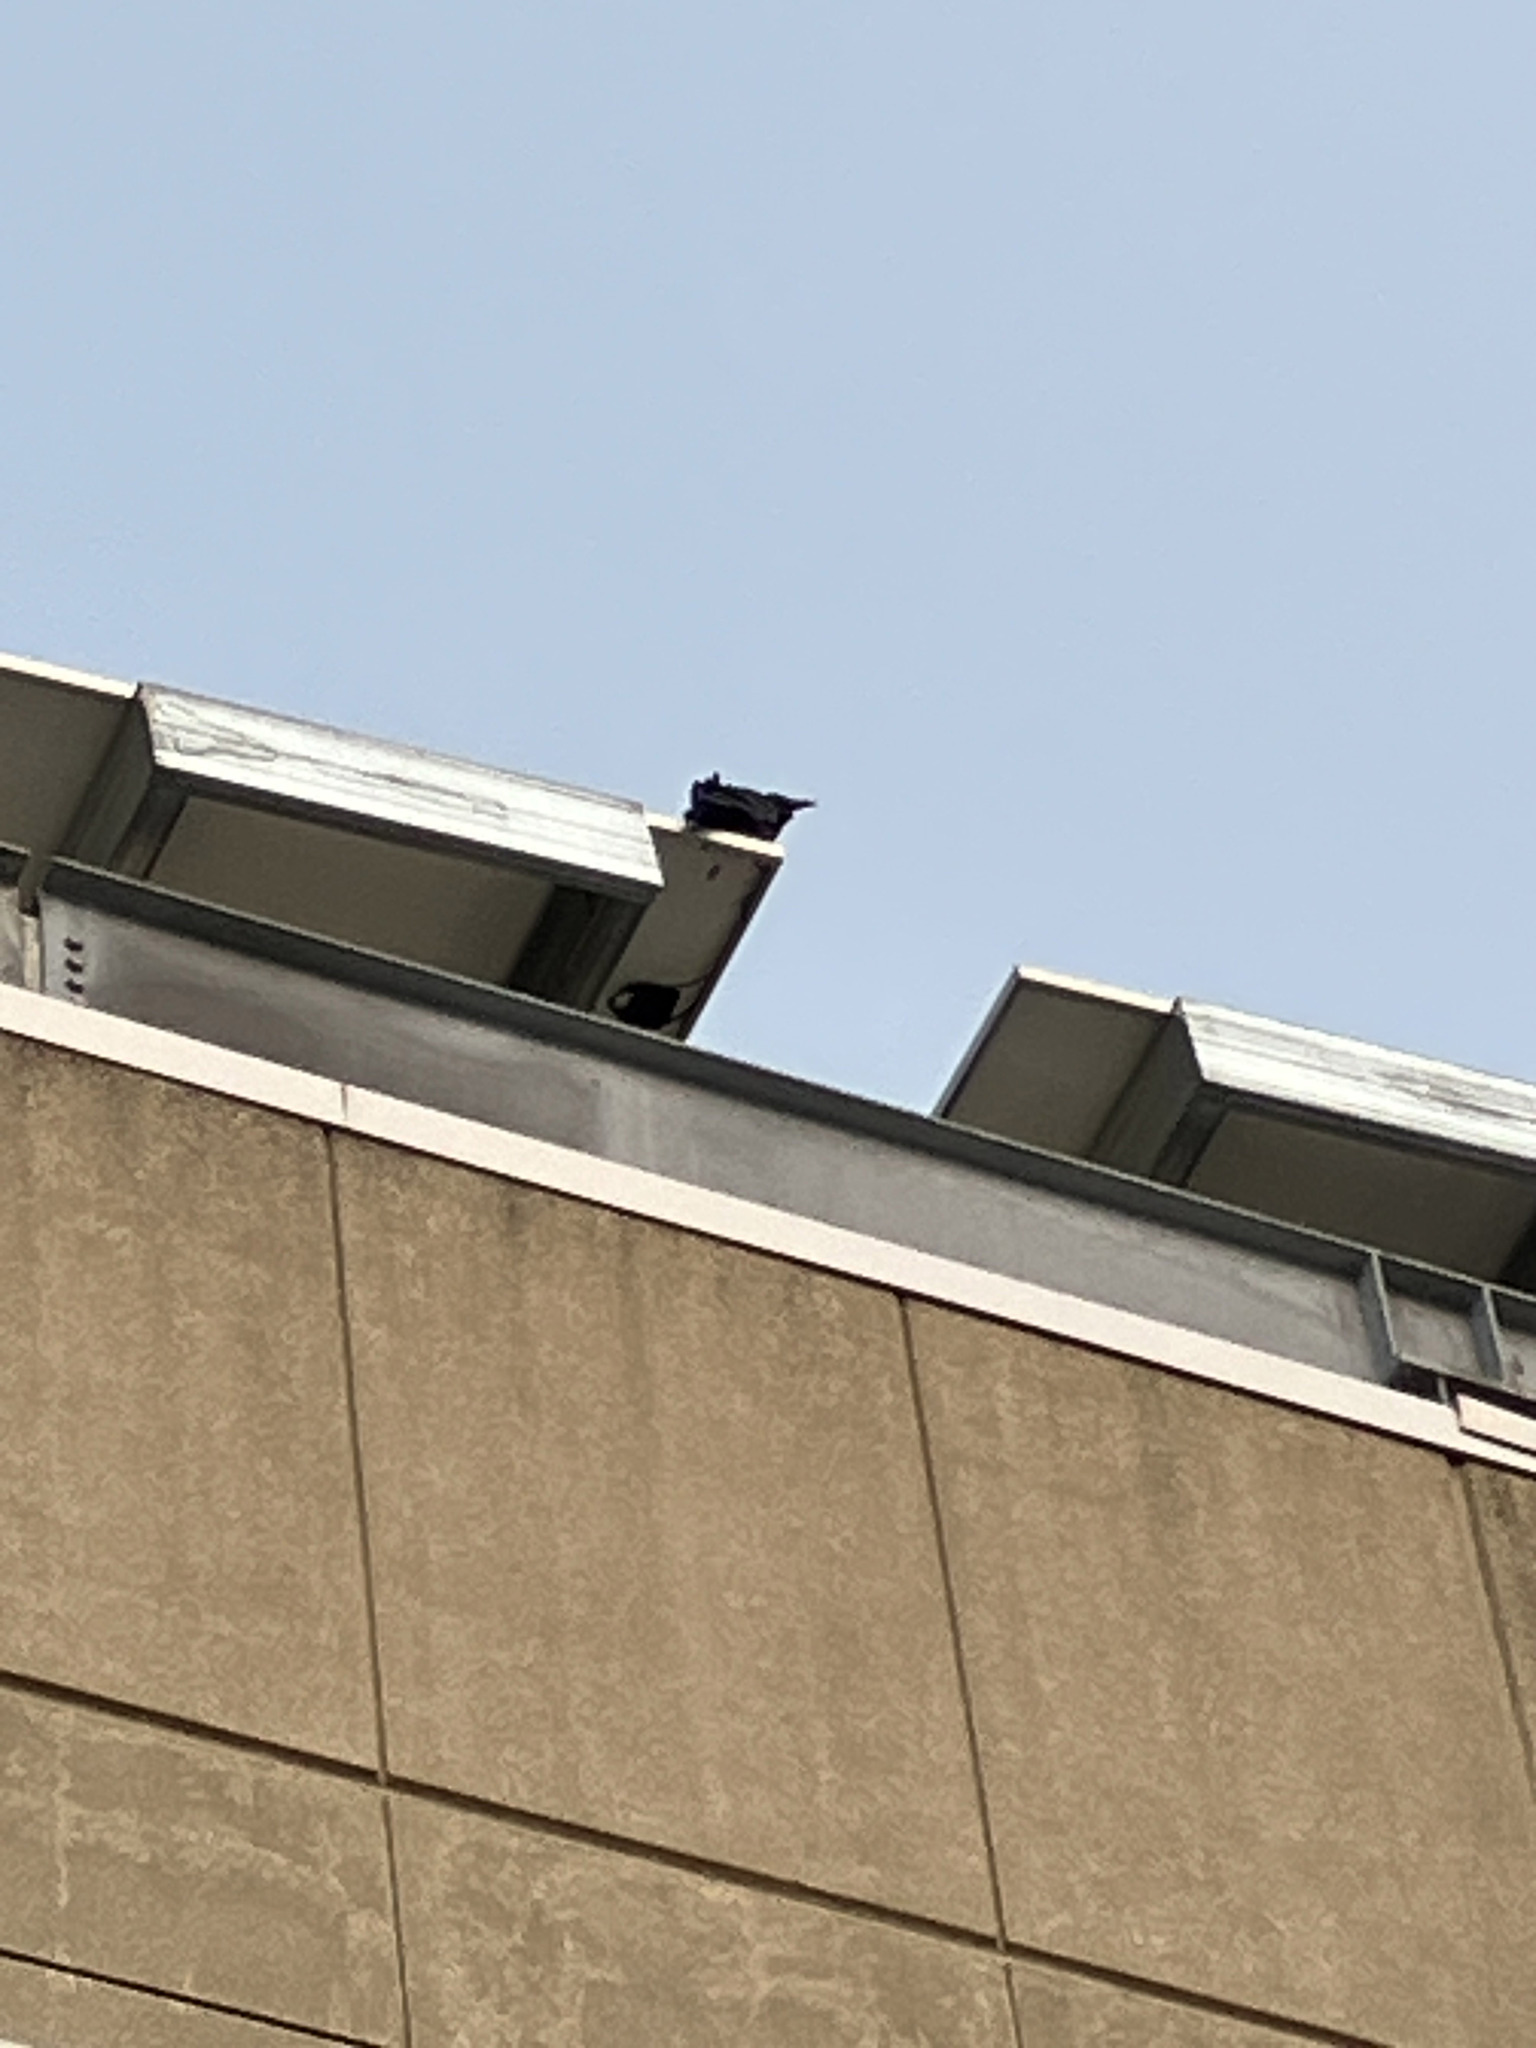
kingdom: Animalia
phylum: Chordata
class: Aves
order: Passeriformes
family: Corvidae
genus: Corvus
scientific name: Corvus corax
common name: Common raven
